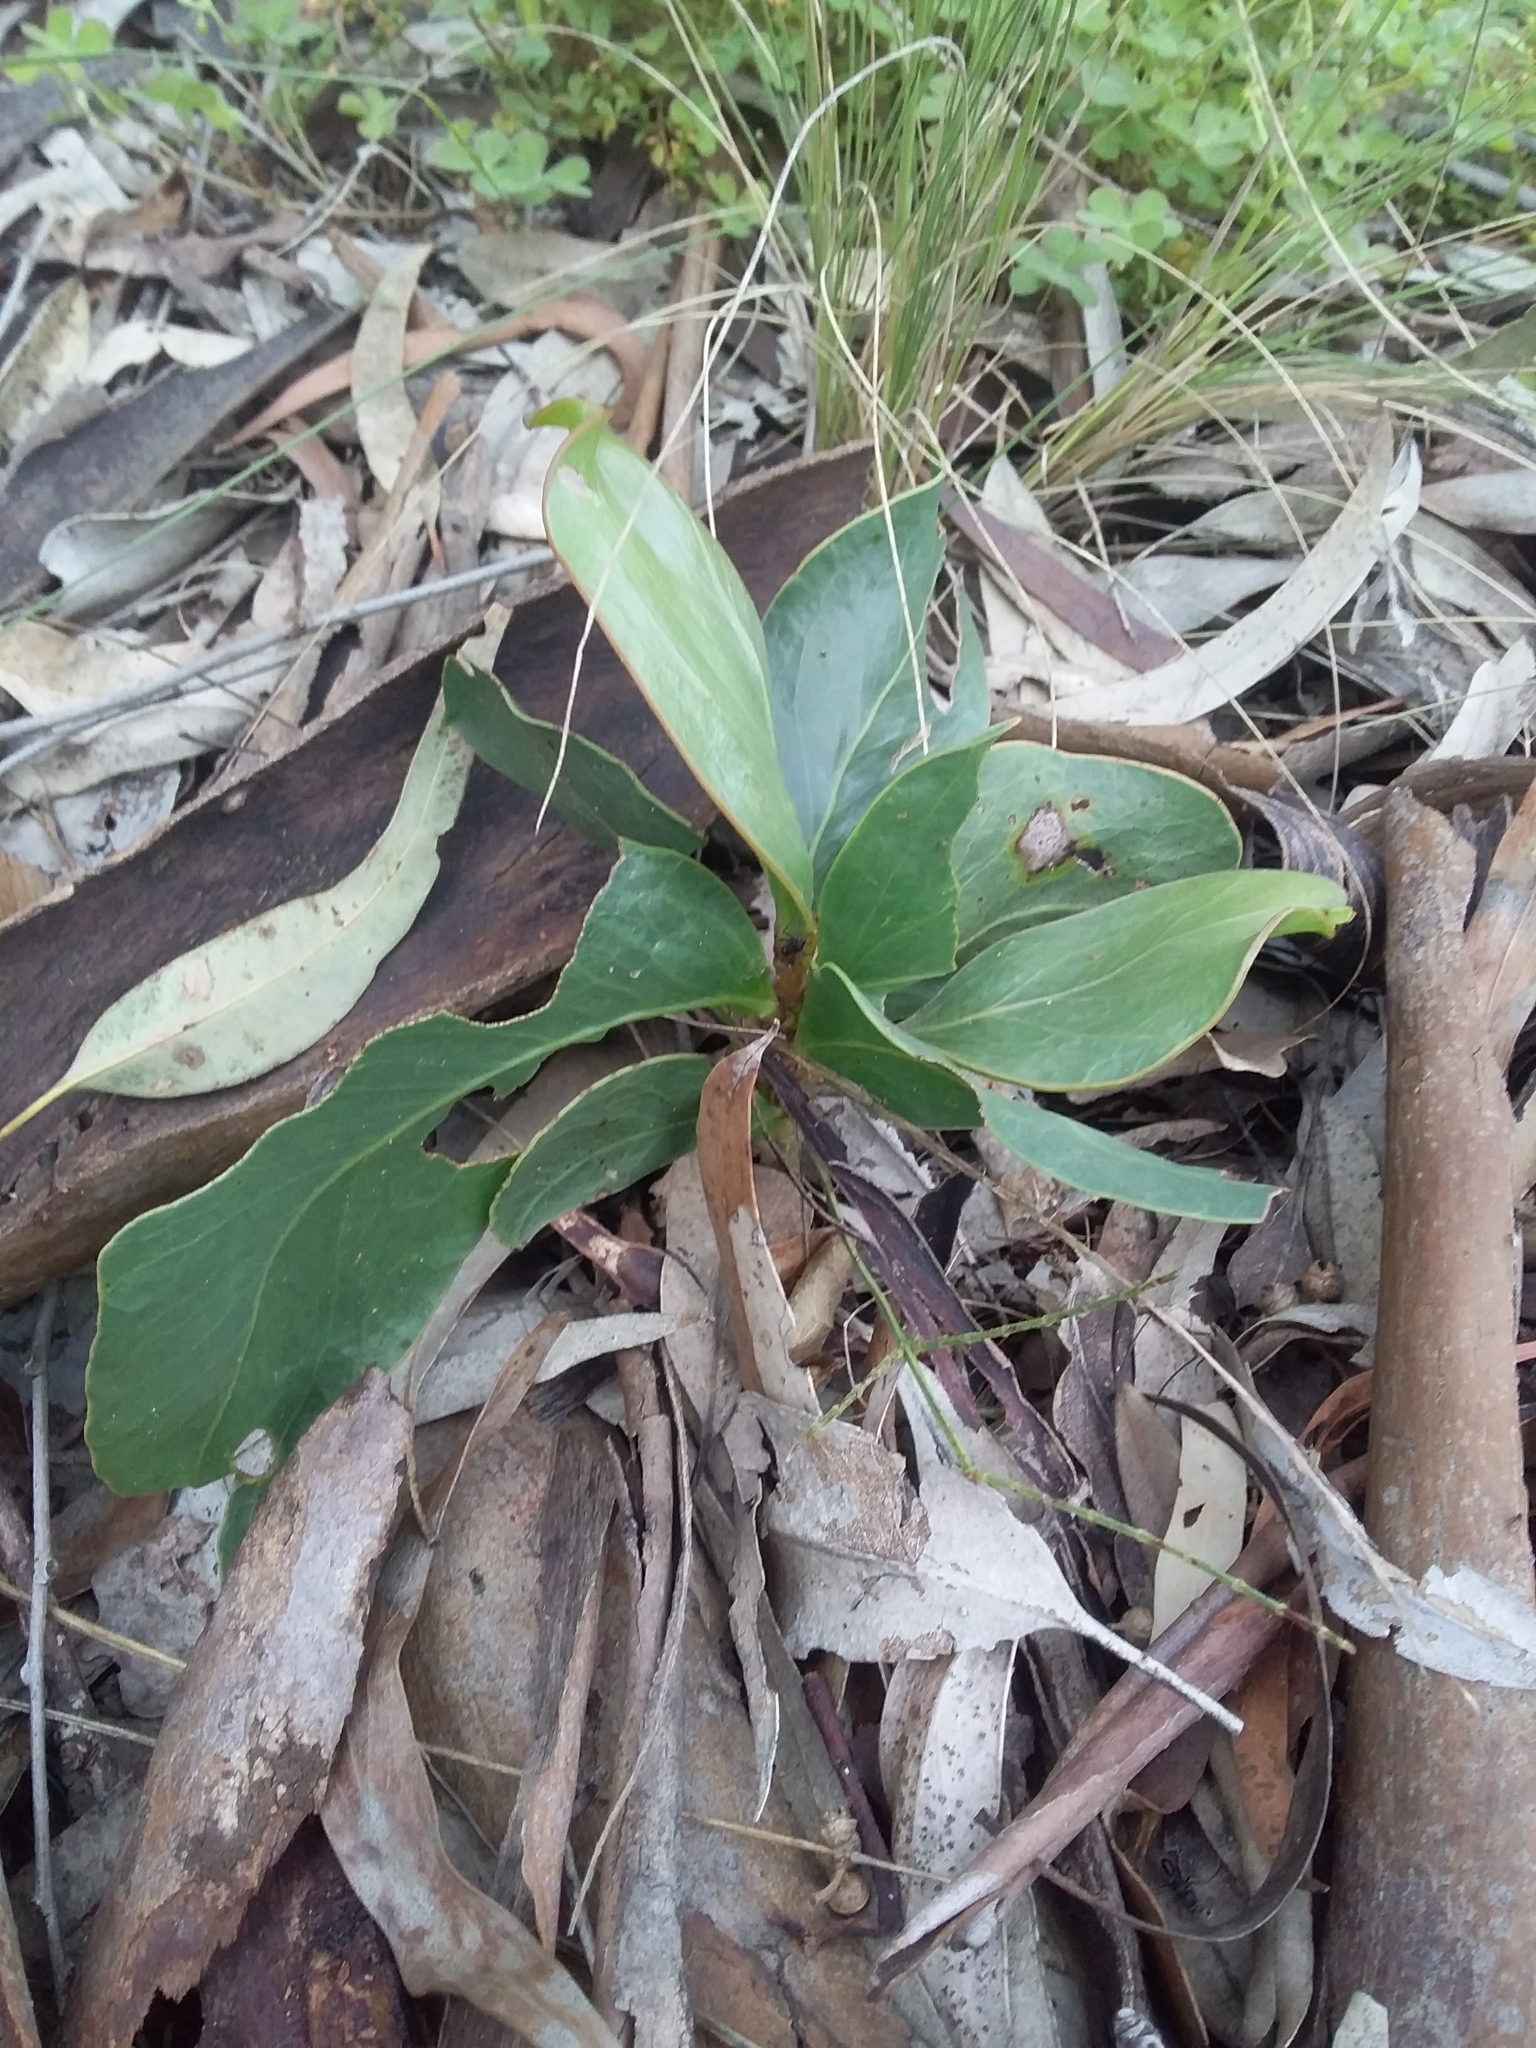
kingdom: Plantae
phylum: Tracheophyta
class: Magnoliopsida
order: Fabales
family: Fabaceae
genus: Acacia
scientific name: Acacia pycnantha
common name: Golden wattle
